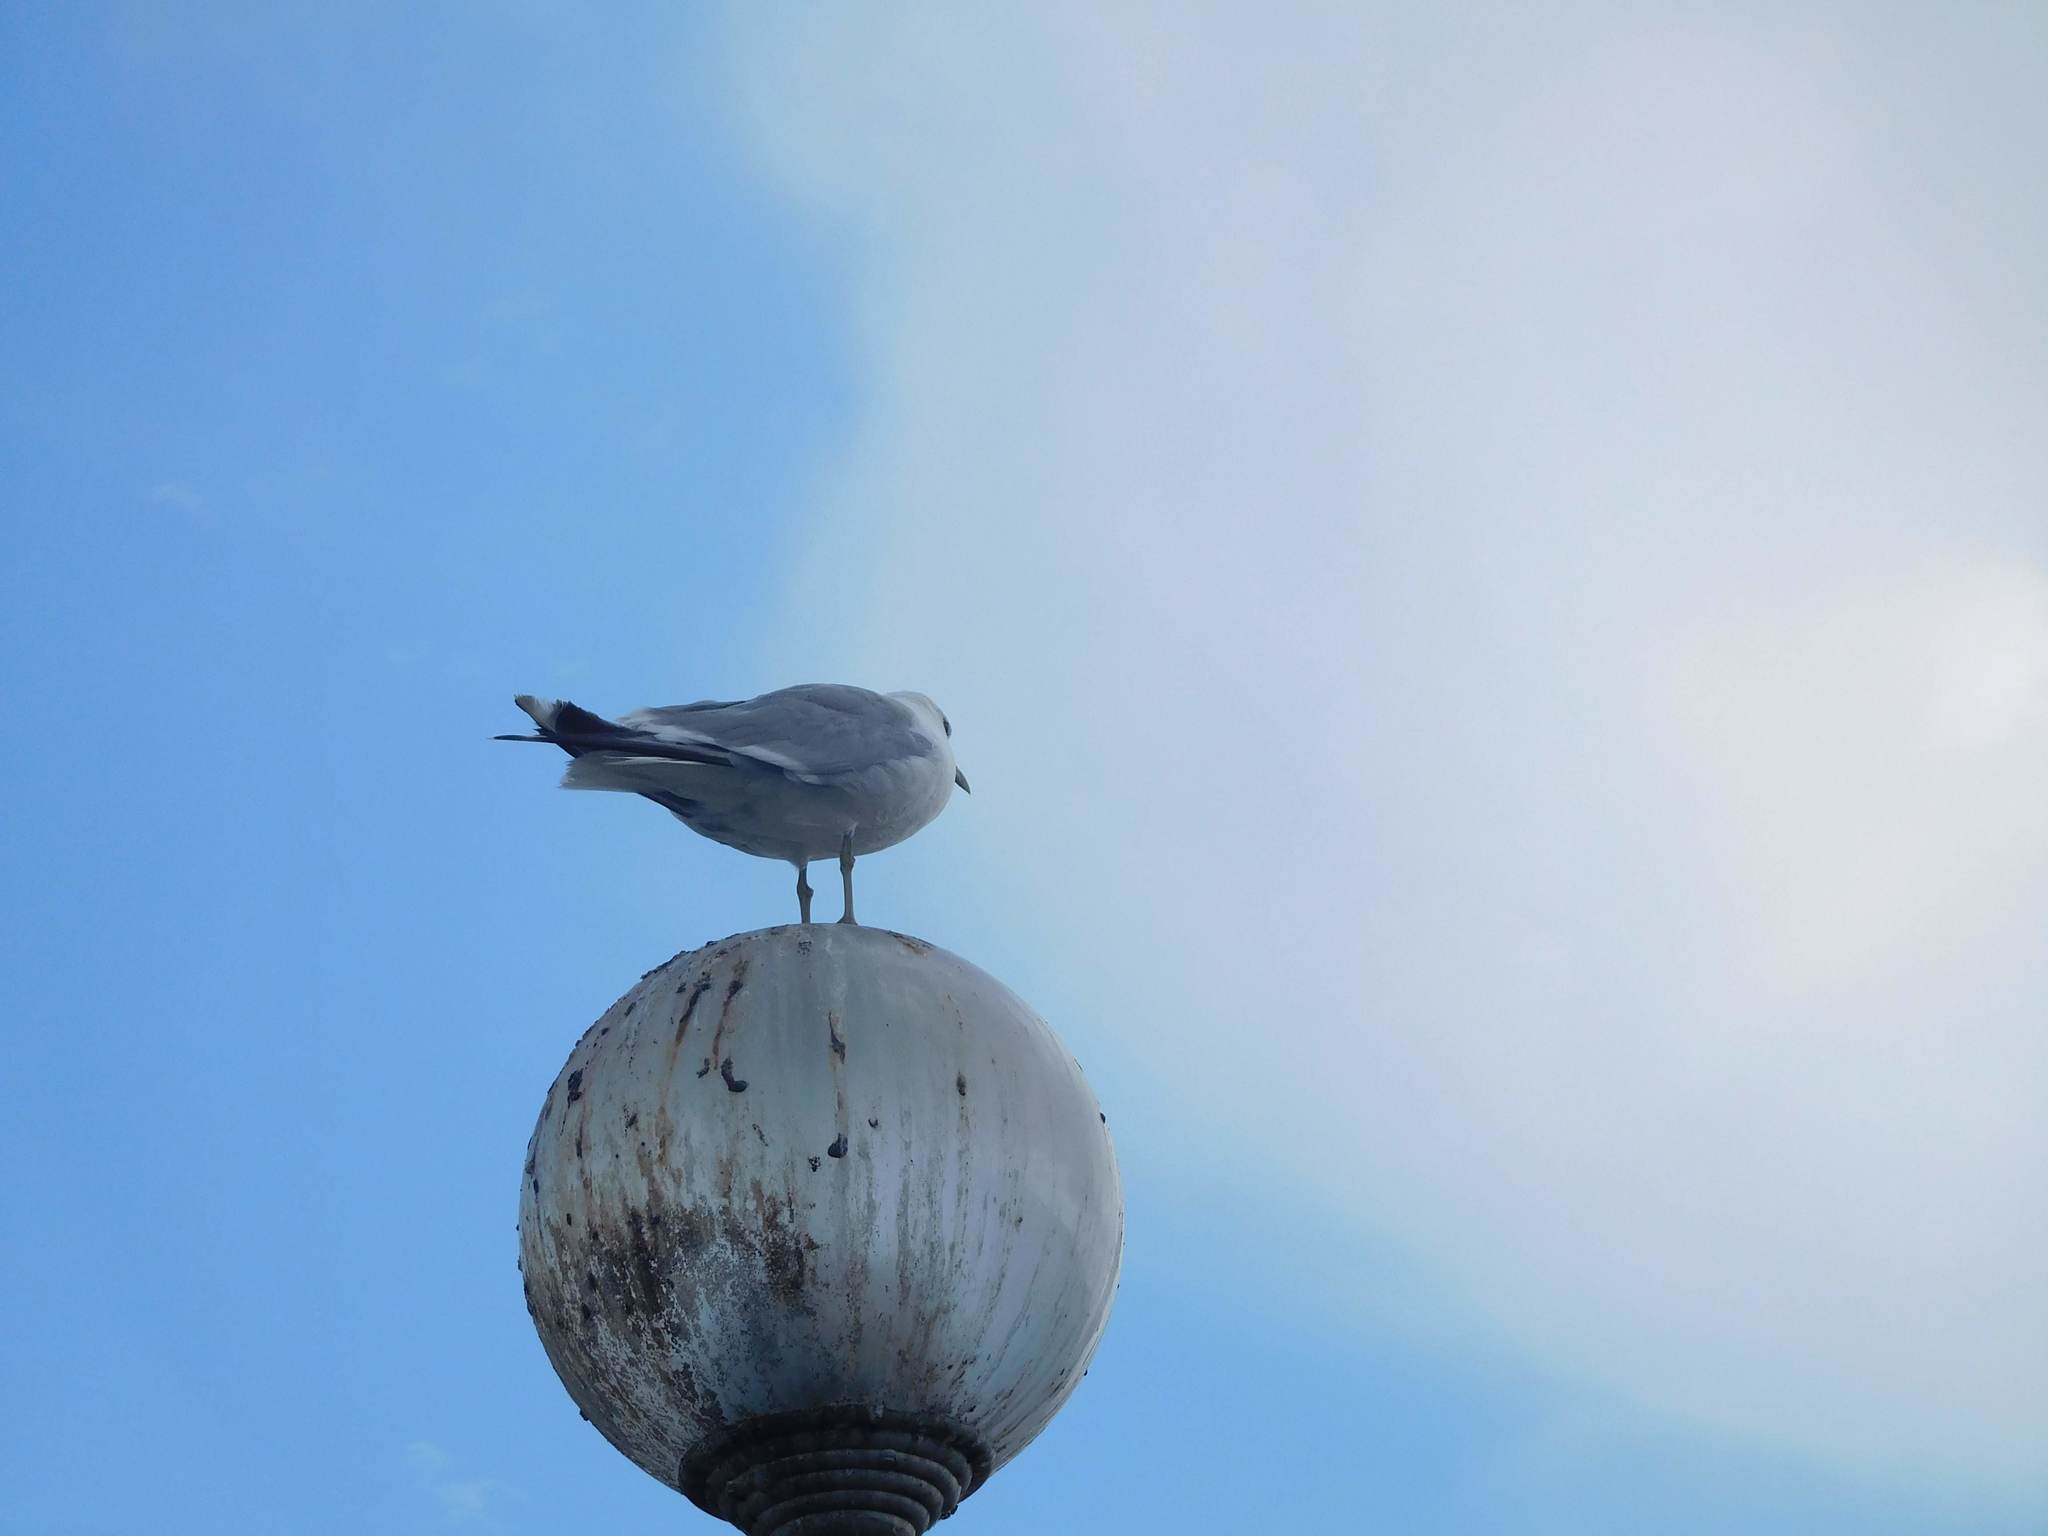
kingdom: Animalia
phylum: Chordata
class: Aves
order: Charadriiformes
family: Laridae
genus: Larus
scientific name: Larus canus
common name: Mew gull
